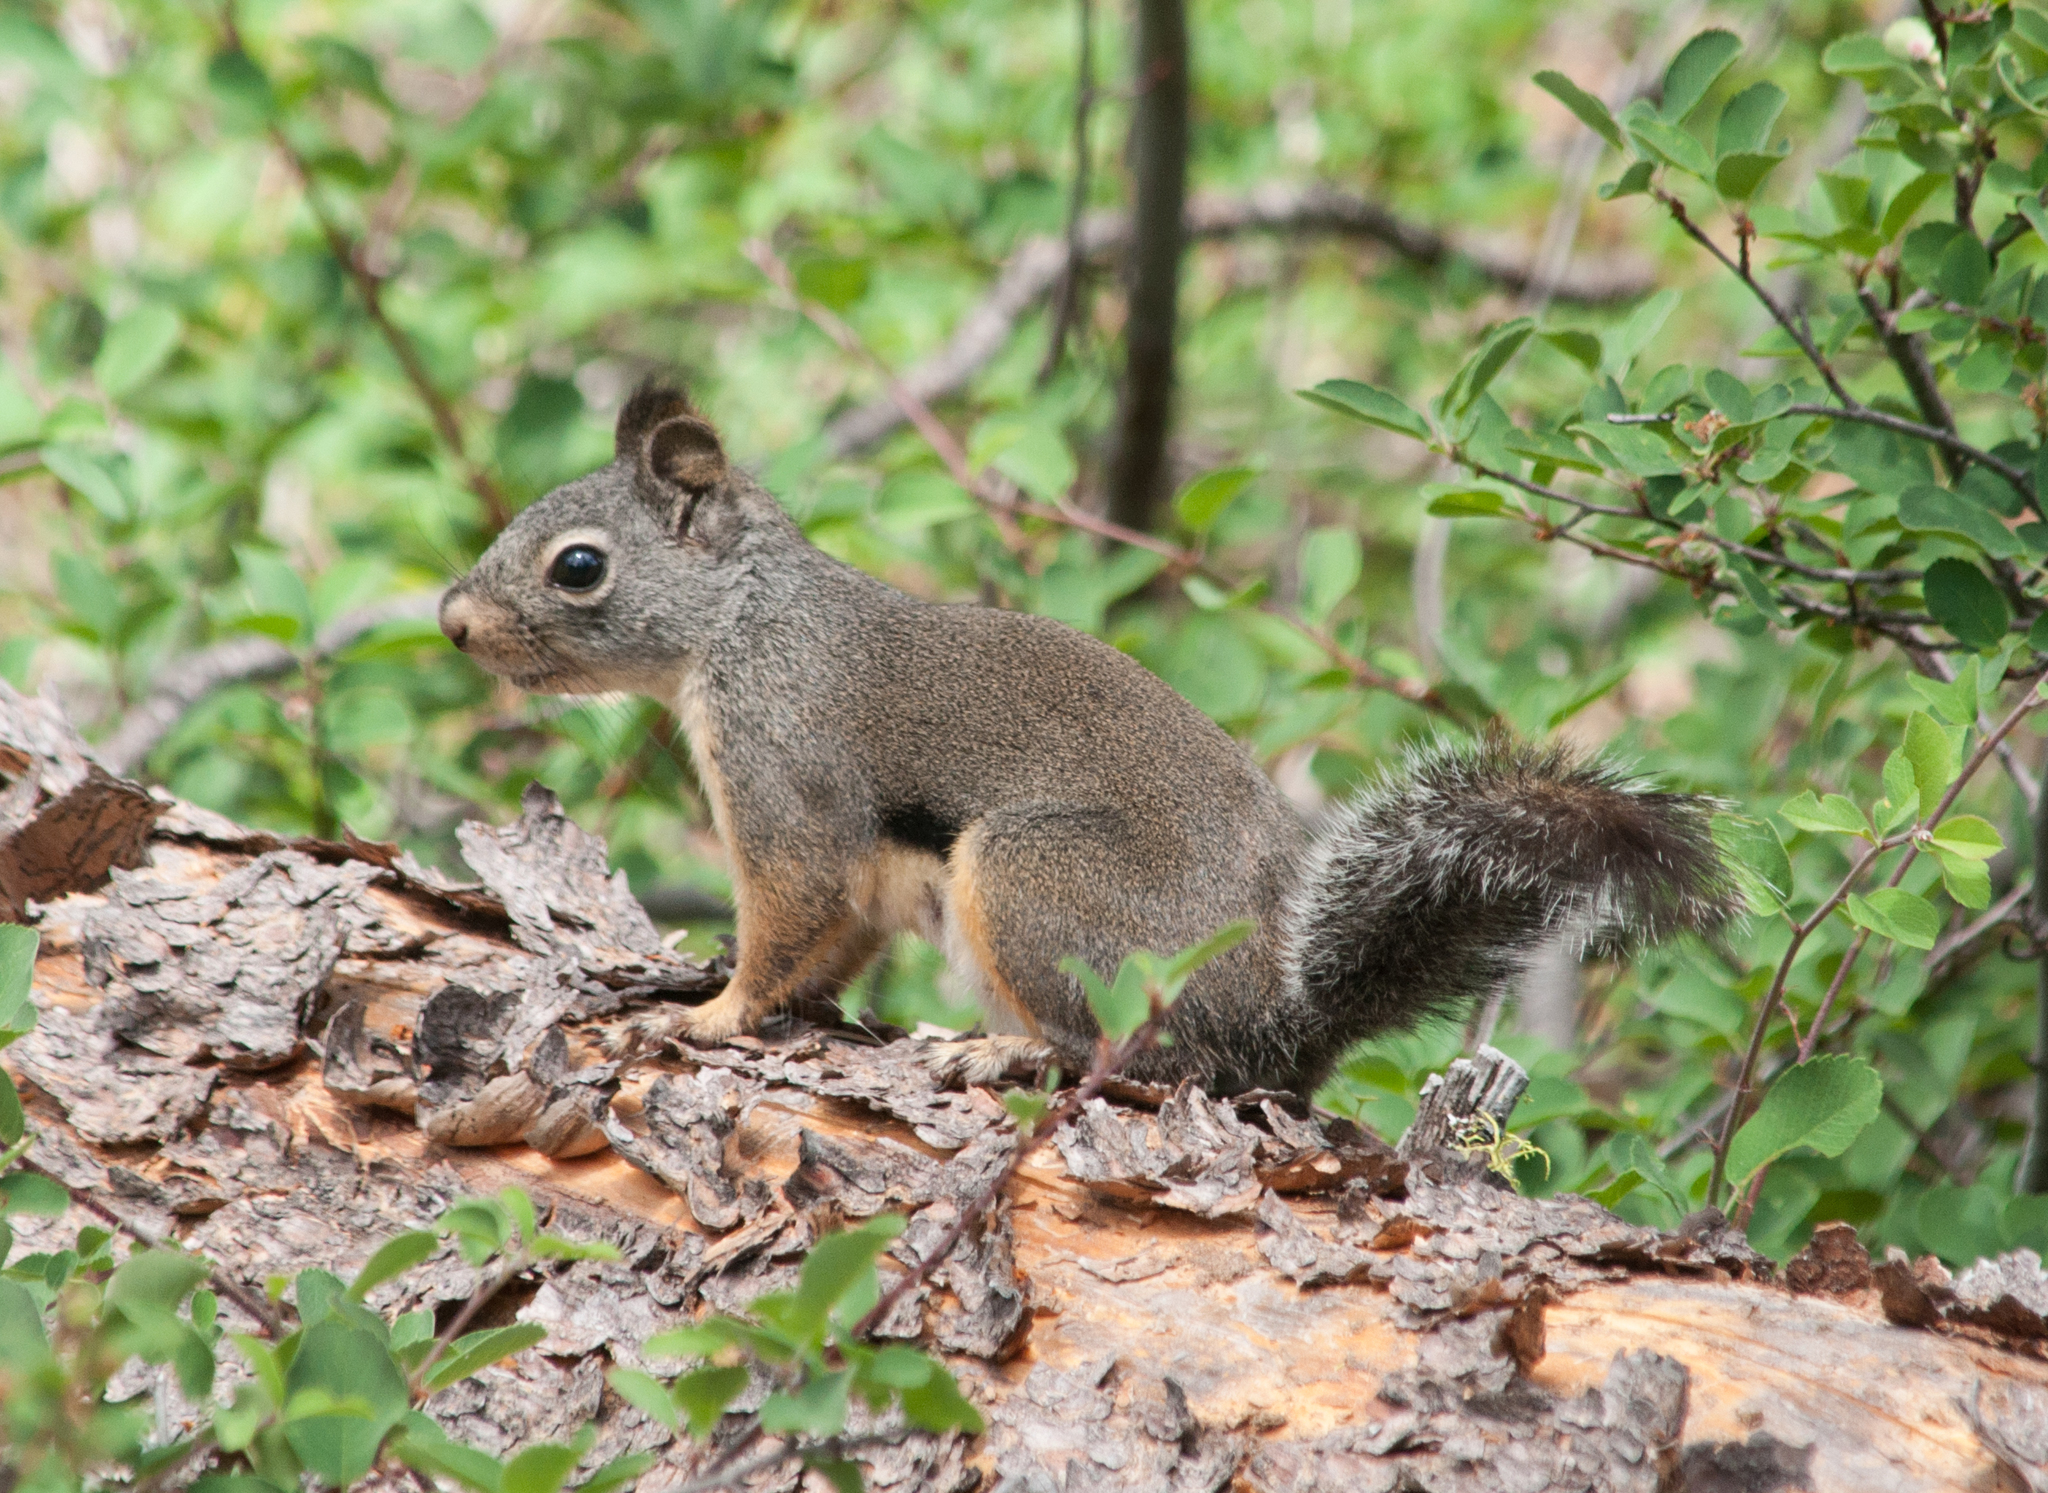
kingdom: Animalia
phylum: Chordata
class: Mammalia
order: Rodentia
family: Sciuridae
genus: Tamiasciurus
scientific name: Tamiasciurus douglasii
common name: Douglas's squirrel
